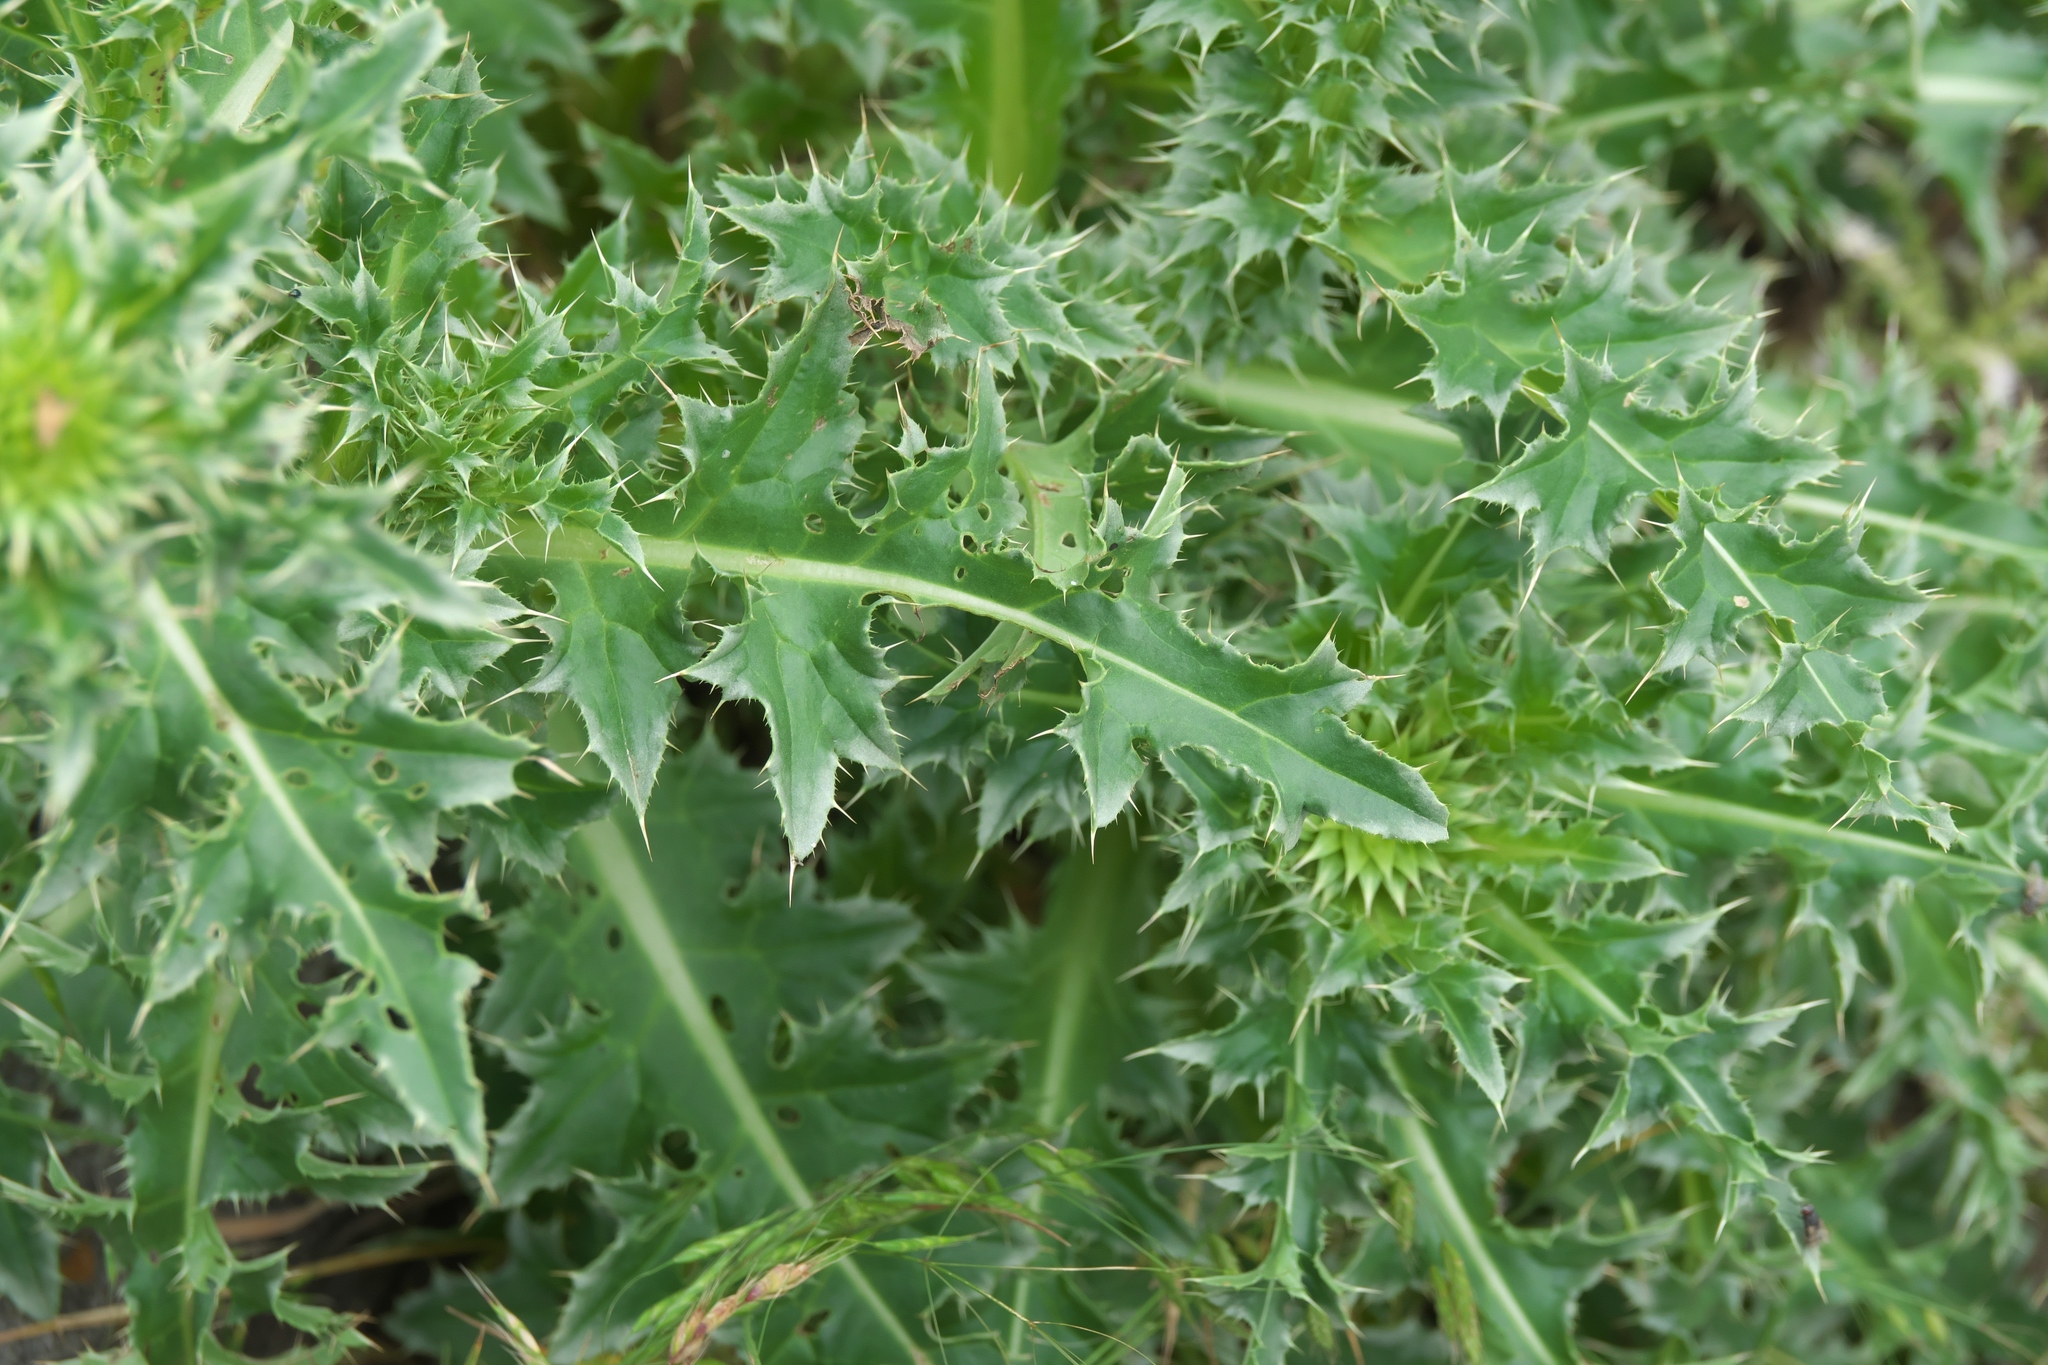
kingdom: Plantae
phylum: Tracheophyta
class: Magnoliopsida
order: Asterales
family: Asteraceae
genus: Carduus
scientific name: Carduus nutans
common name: Musk thistle
